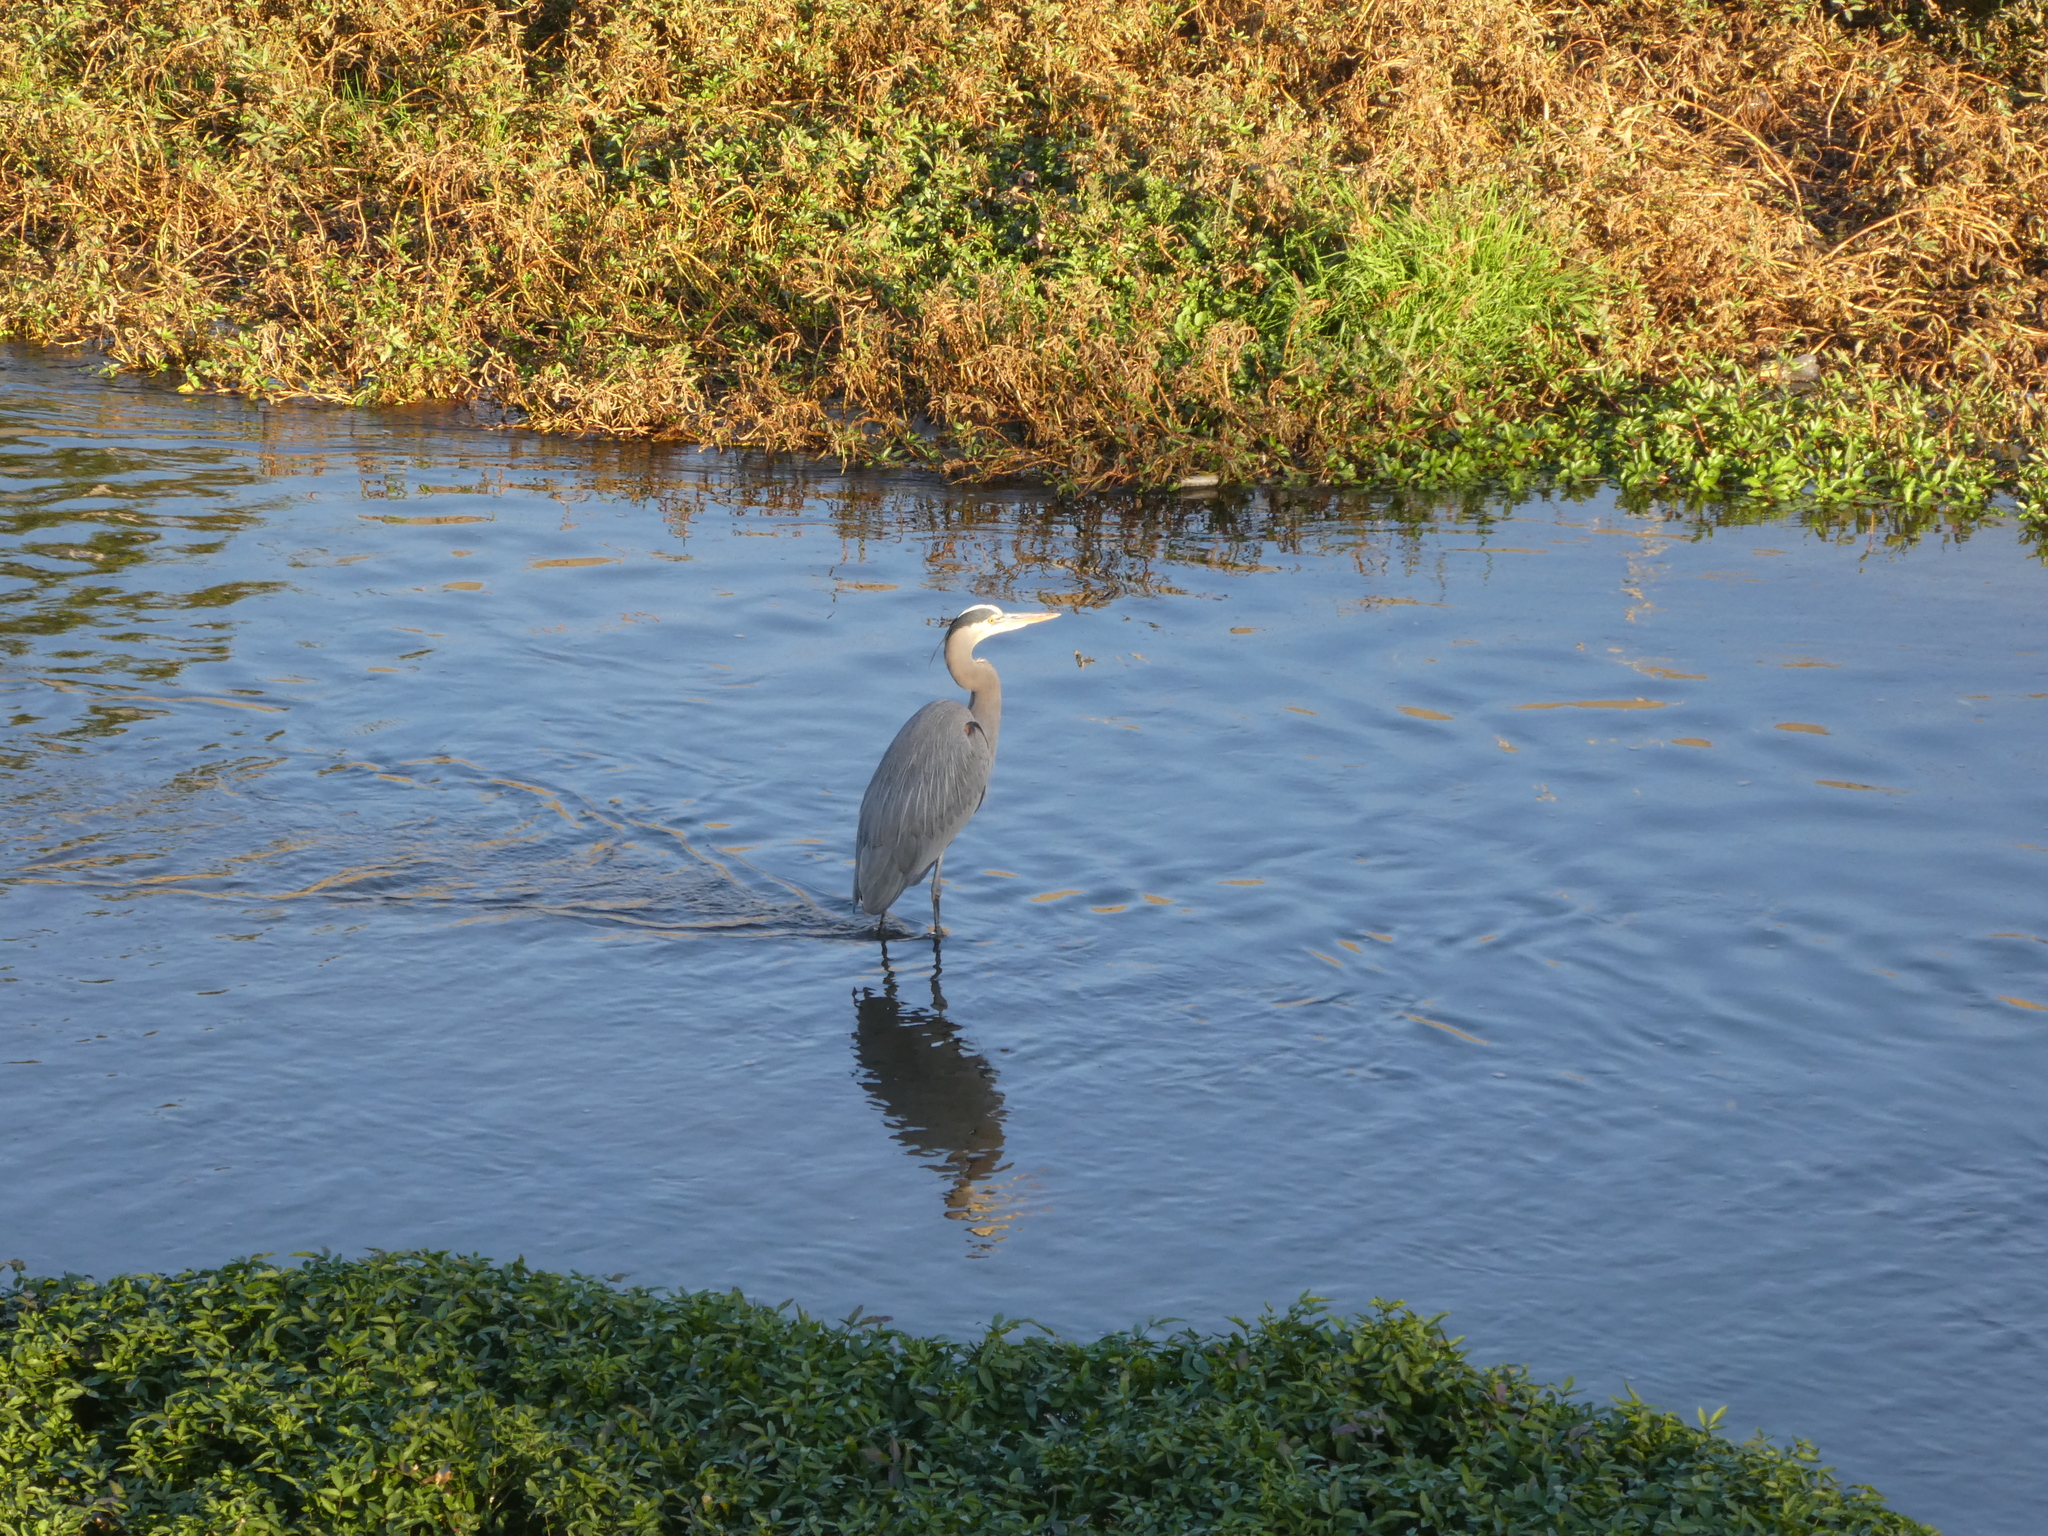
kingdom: Animalia
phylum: Chordata
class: Aves
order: Pelecaniformes
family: Ardeidae
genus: Ardea
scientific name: Ardea herodias
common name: Great blue heron
